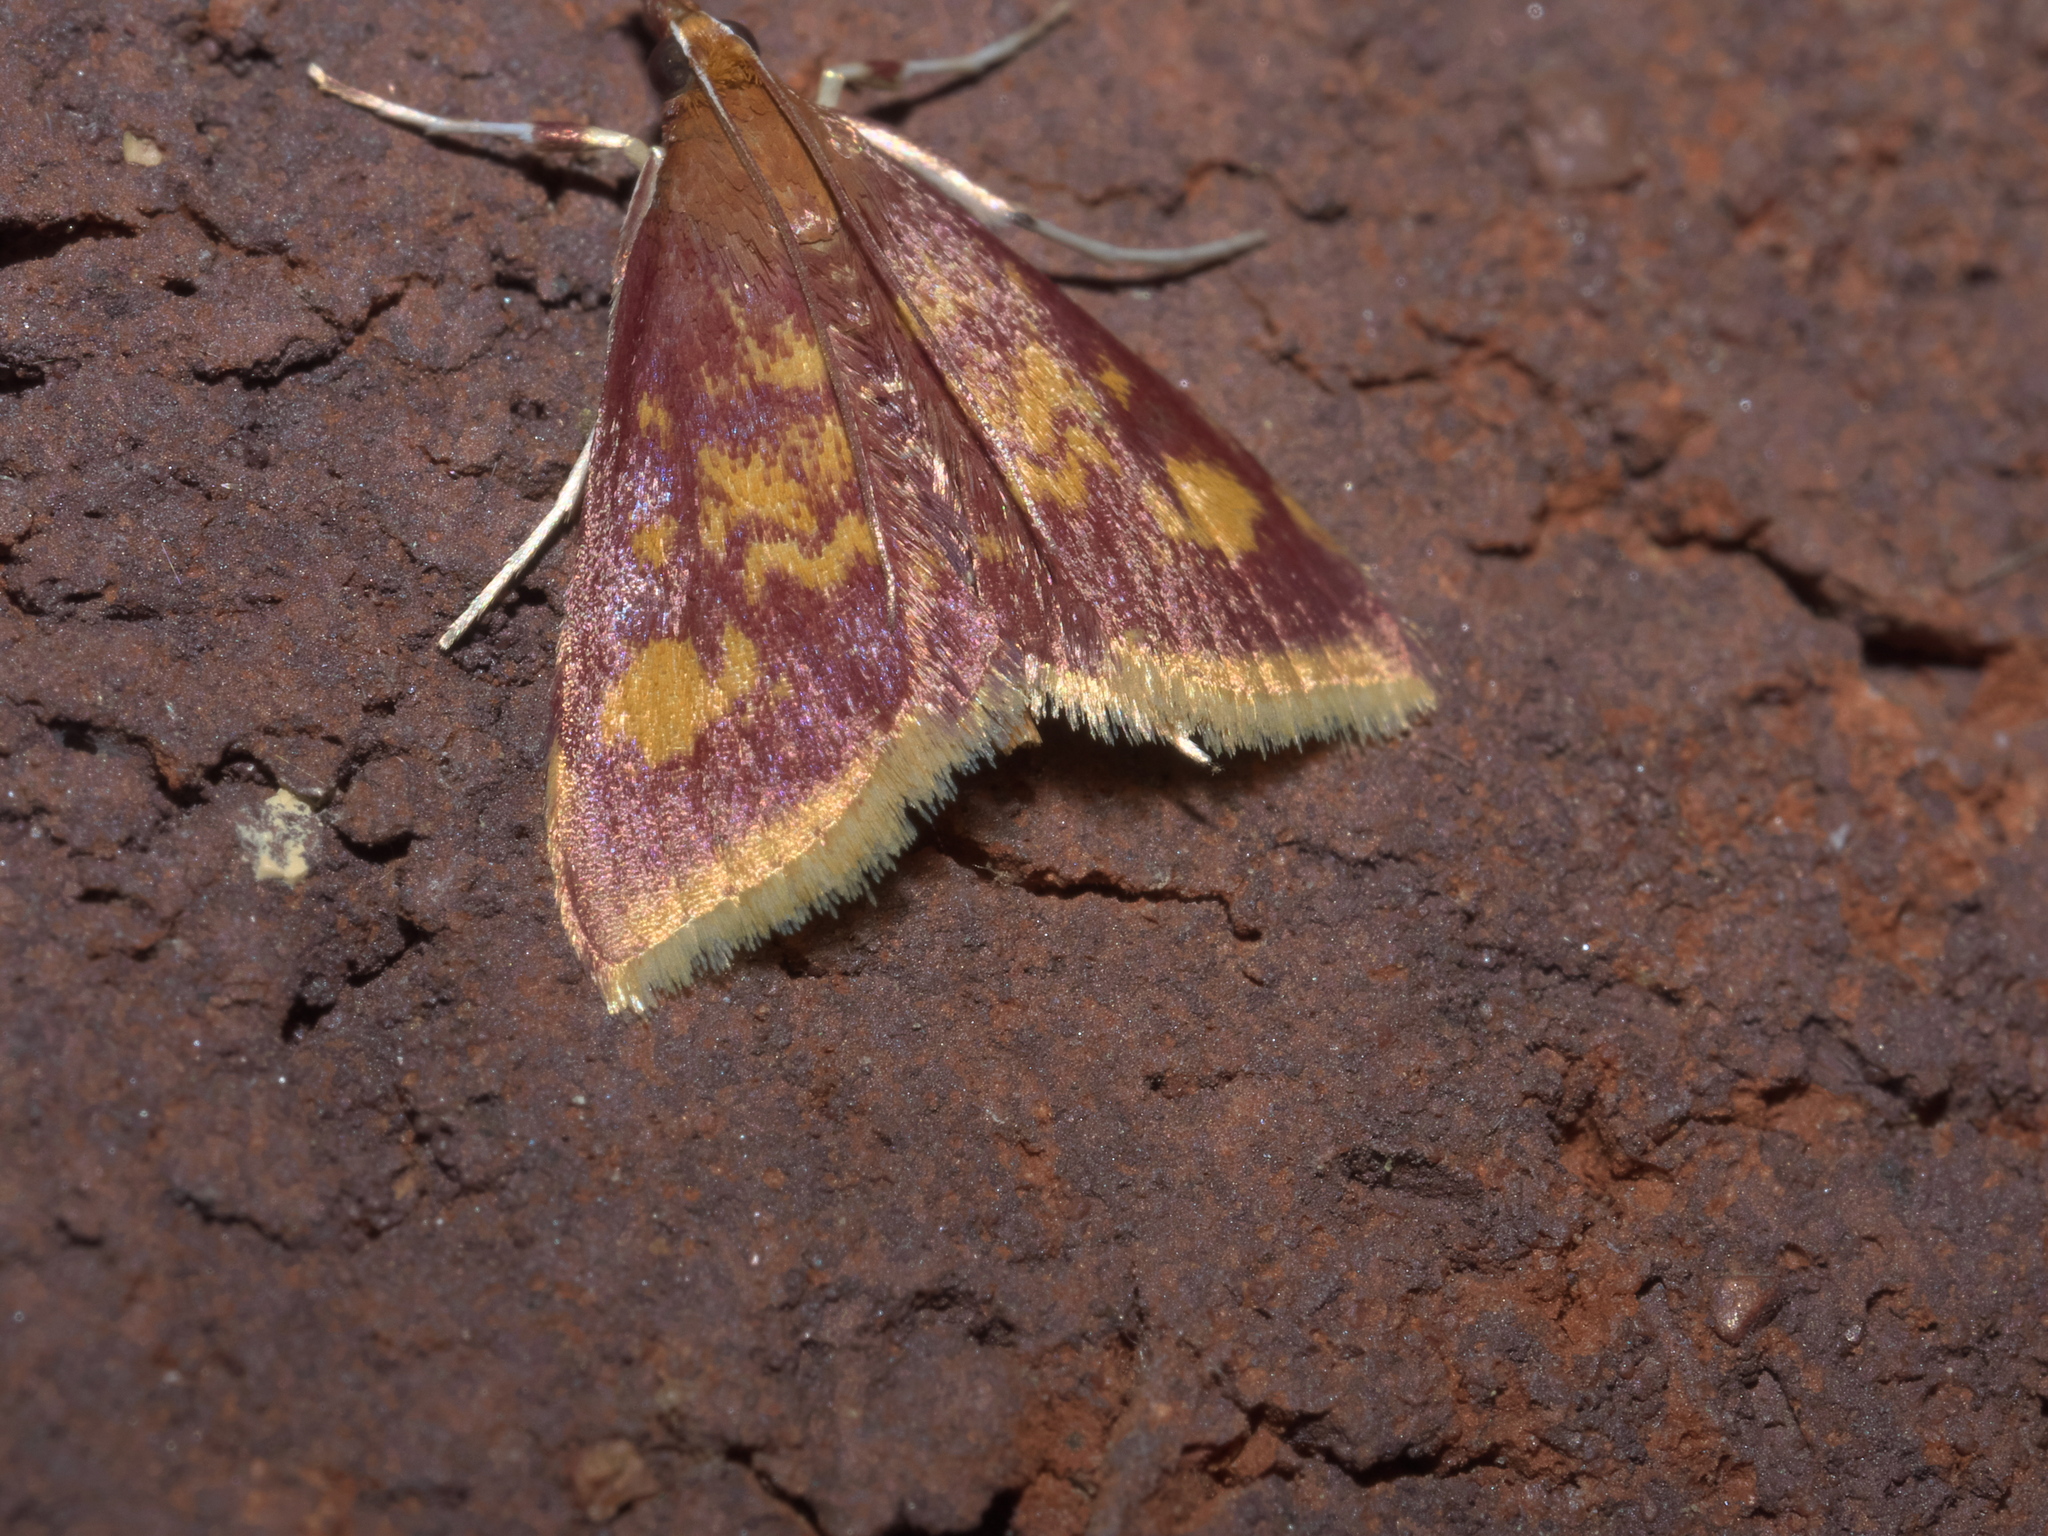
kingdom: Animalia
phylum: Arthropoda
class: Insecta
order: Lepidoptera
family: Crambidae
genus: Pyrausta
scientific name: Pyrausta acrionalis
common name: Mint-loving pyrausta moth
